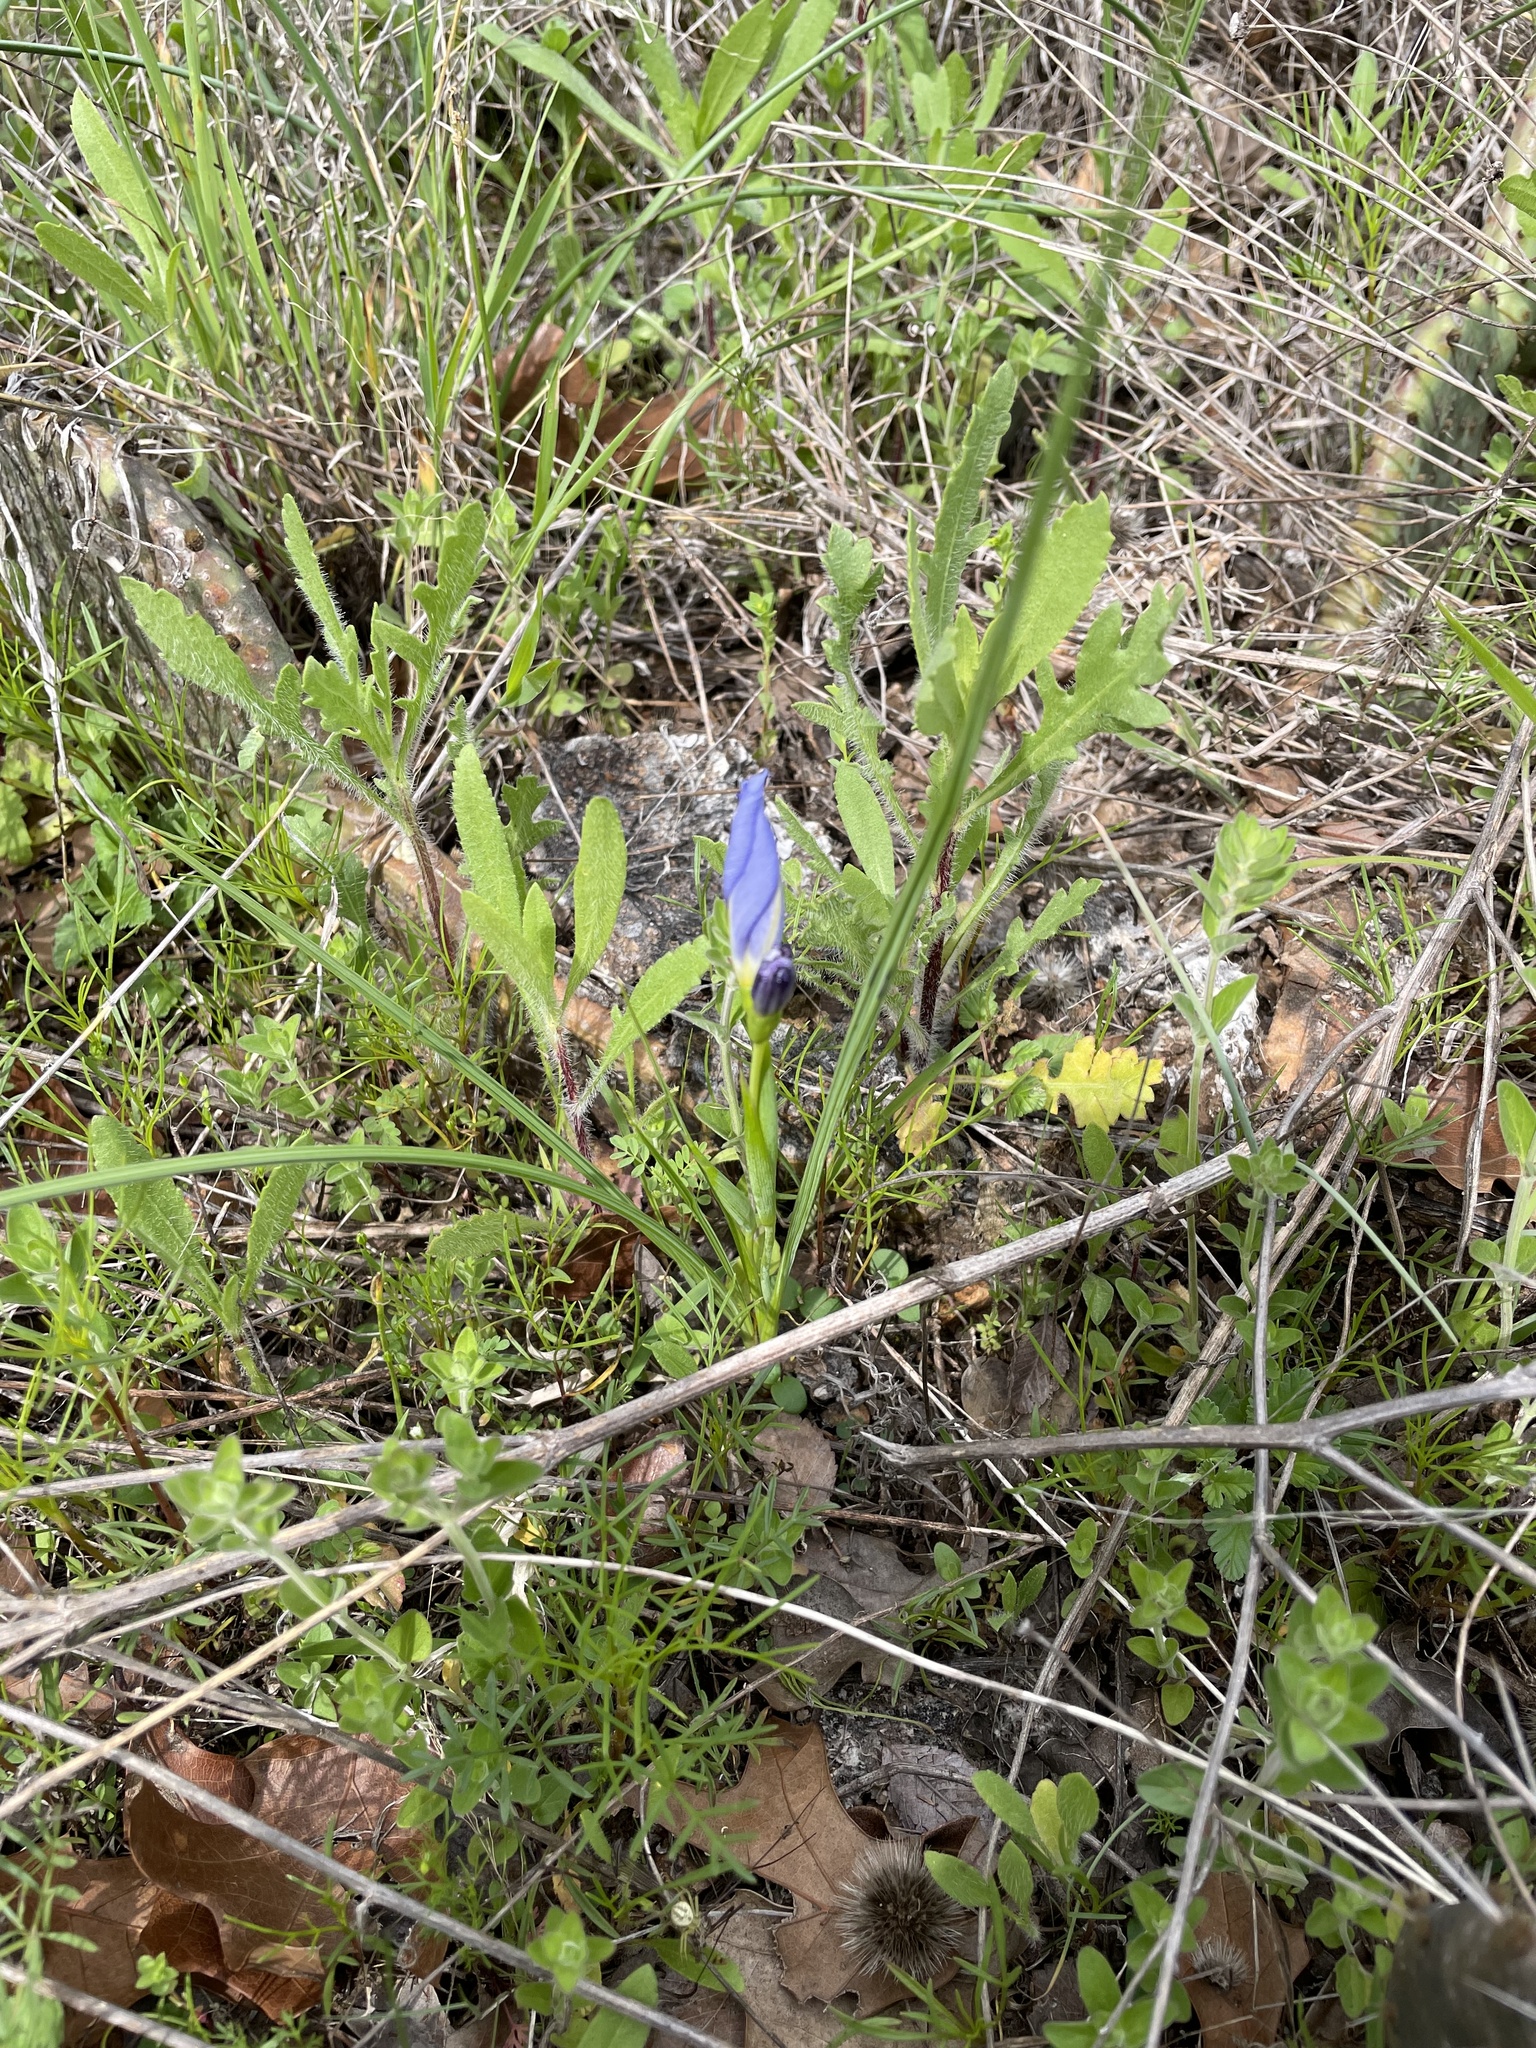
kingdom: Plantae
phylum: Tracheophyta
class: Liliopsida
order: Asparagales
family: Iridaceae
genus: Nemastylis
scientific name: Nemastylis geminiflora
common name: Prairie celestial
